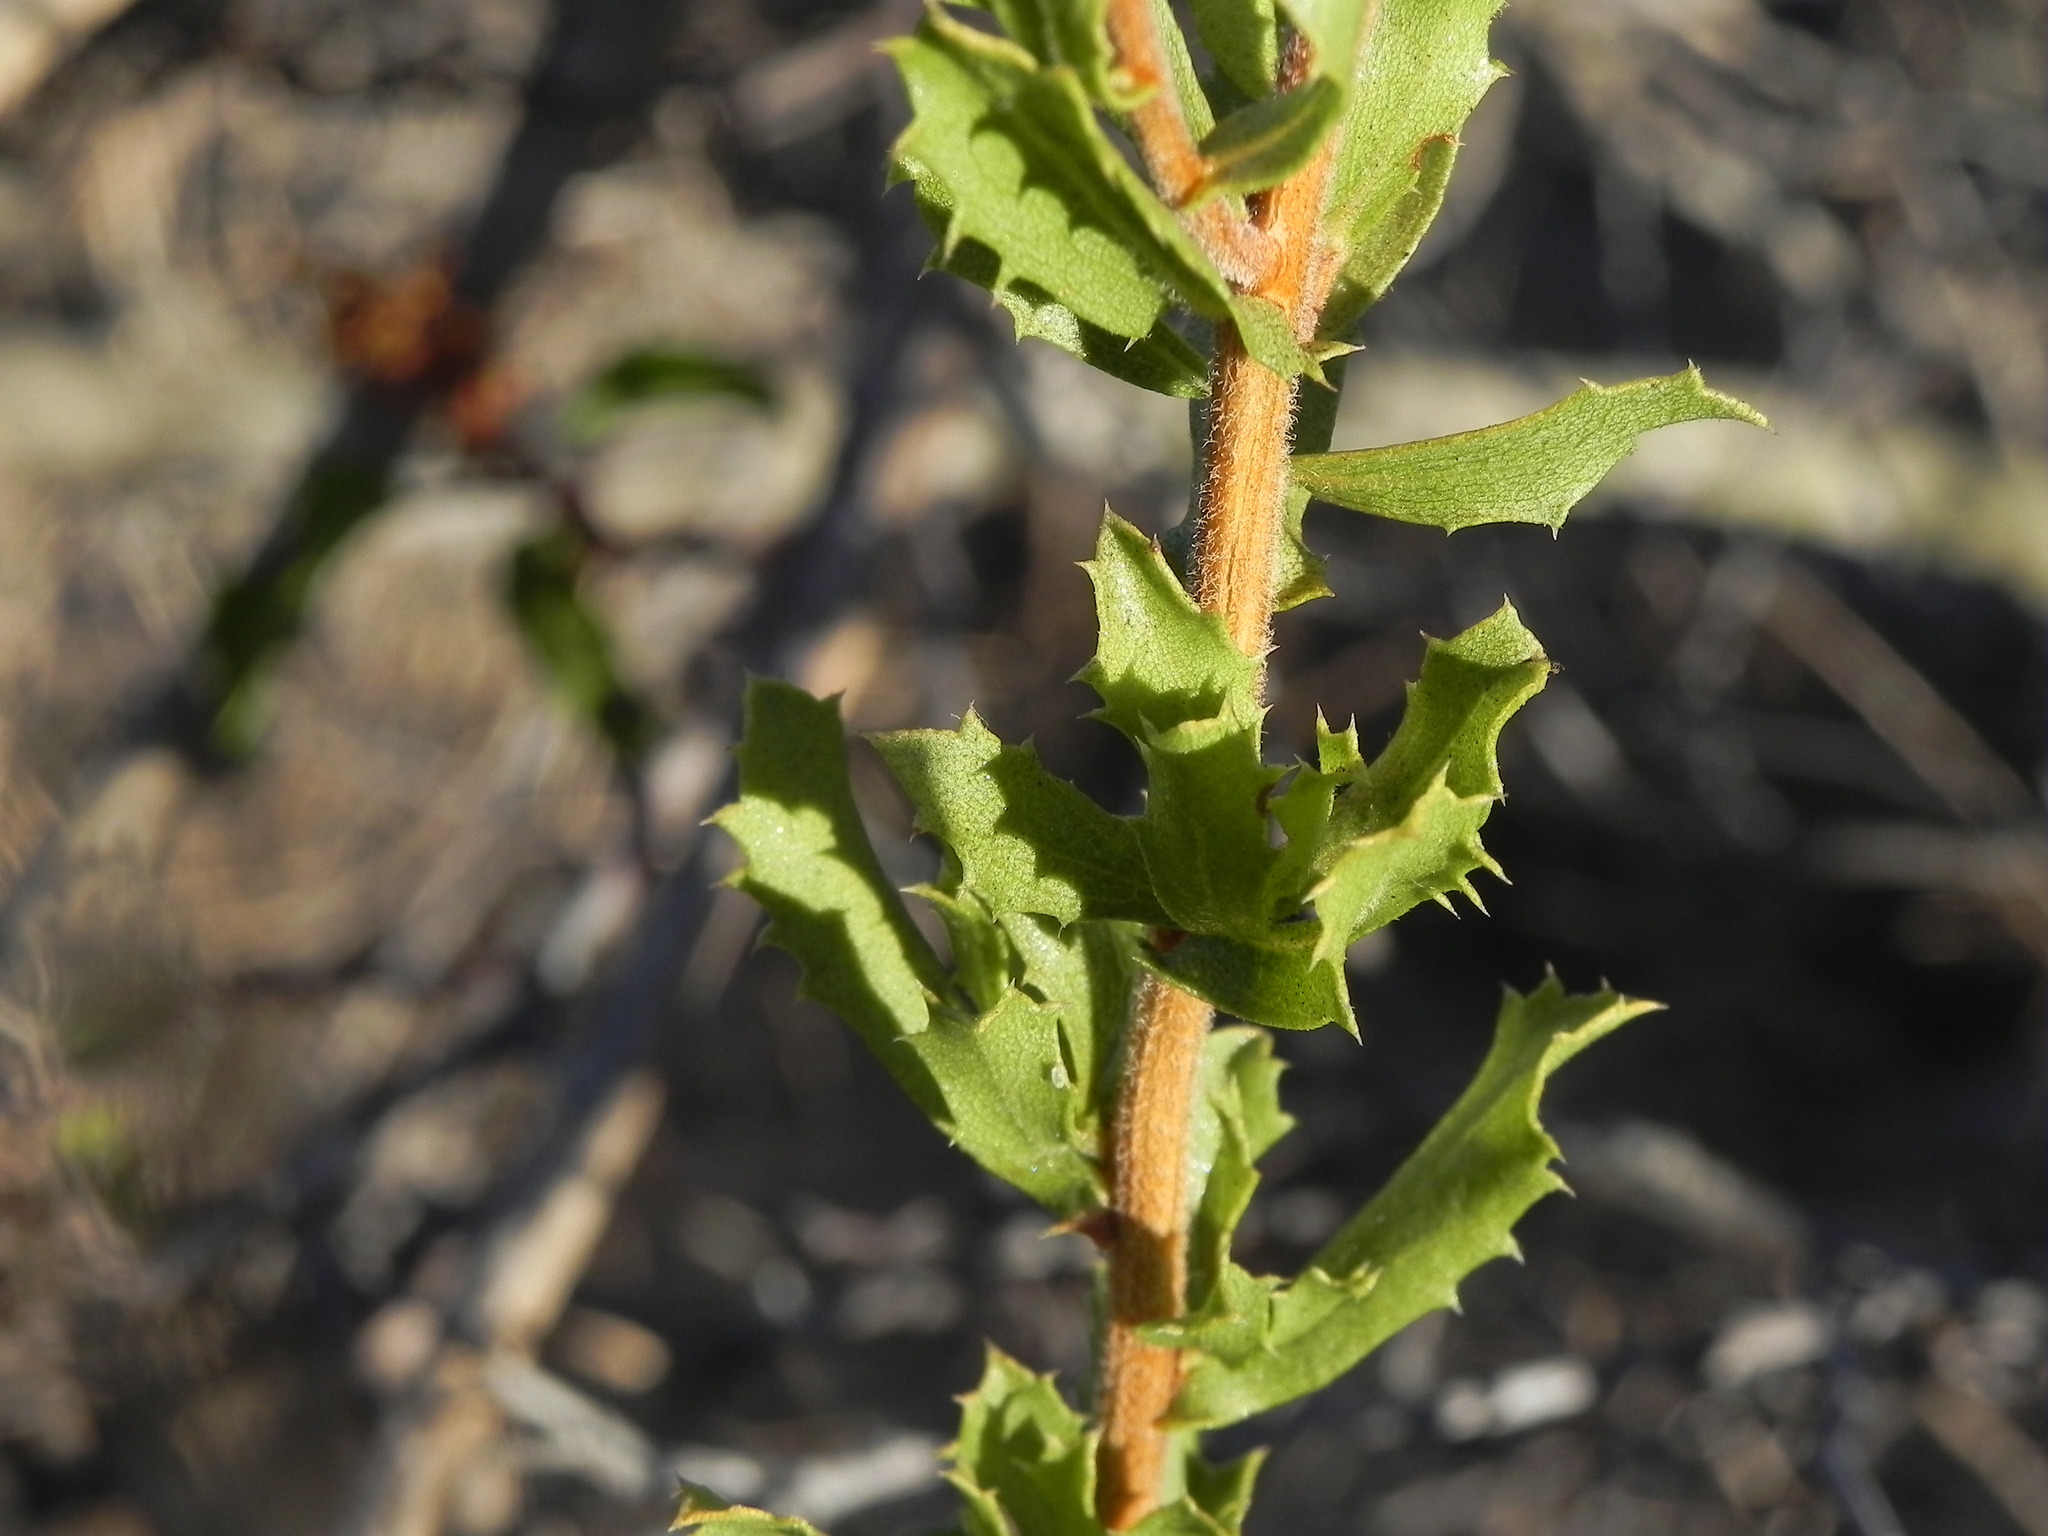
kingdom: Plantae
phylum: Tracheophyta
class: Magnoliopsida
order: Asterales
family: Asteraceae
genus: Hazardia
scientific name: Hazardia squarrosa
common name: Saw-tooth goldenbush
